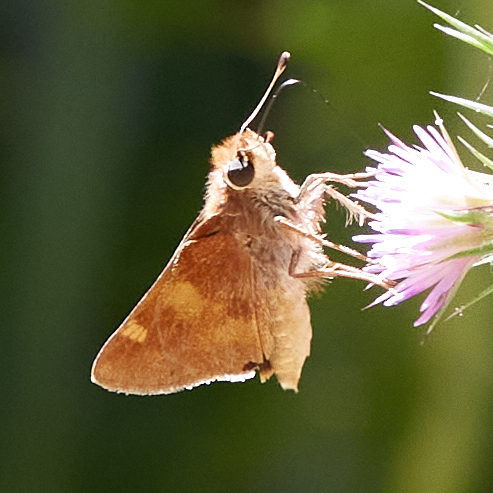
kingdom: Animalia
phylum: Arthropoda
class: Insecta
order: Lepidoptera
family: Hesperiidae
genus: Lon
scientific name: Lon melane
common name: Umber skipper
